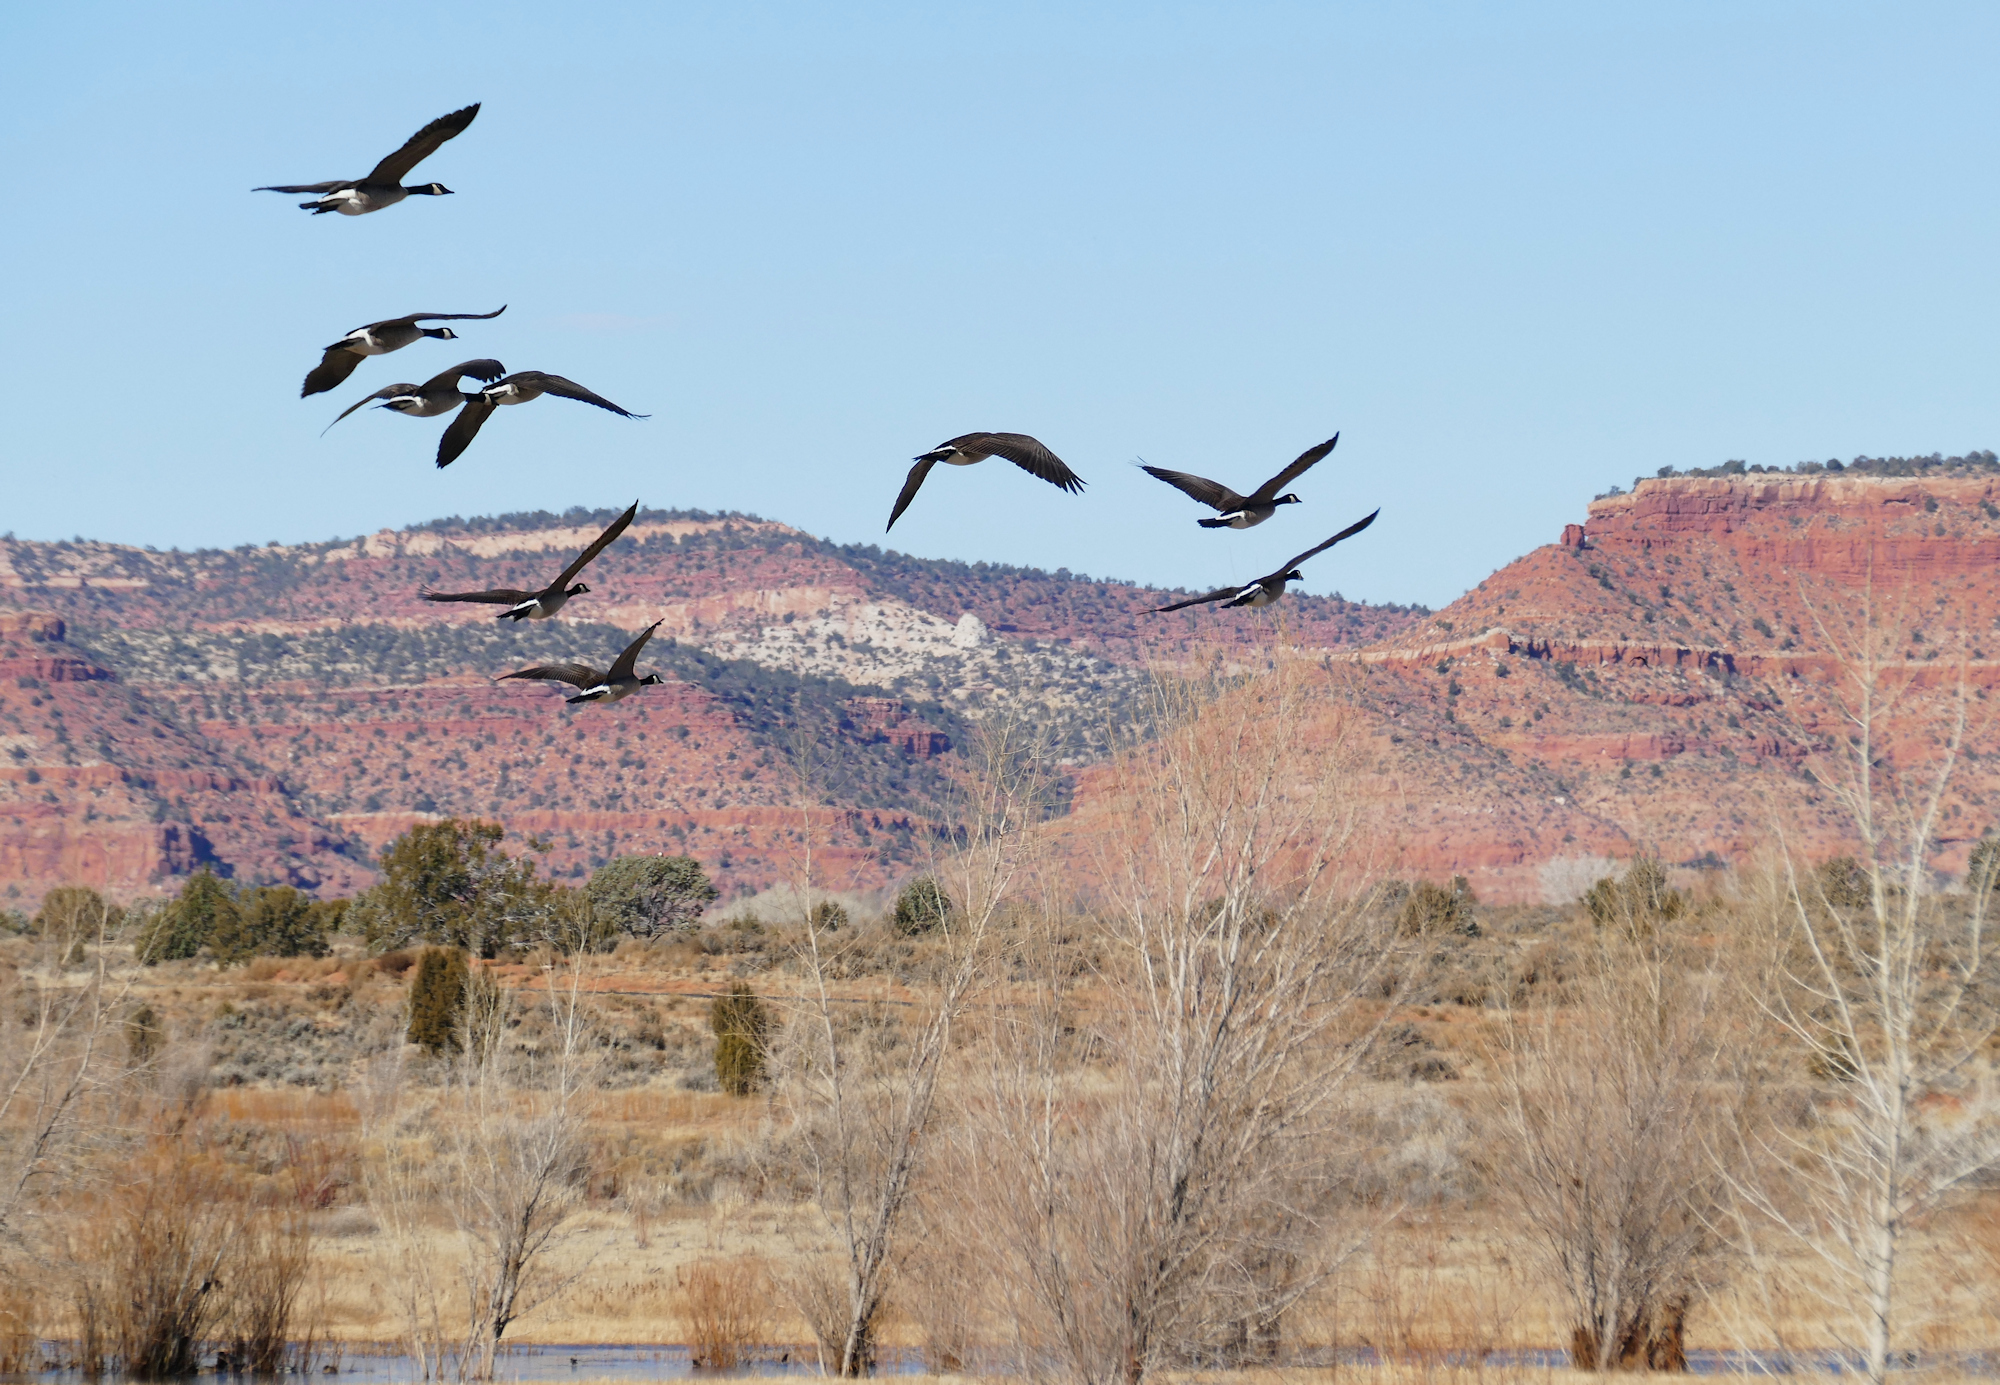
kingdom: Animalia
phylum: Chordata
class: Aves
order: Anseriformes
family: Anatidae
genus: Branta
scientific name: Branta canadensis
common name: Canada goose
